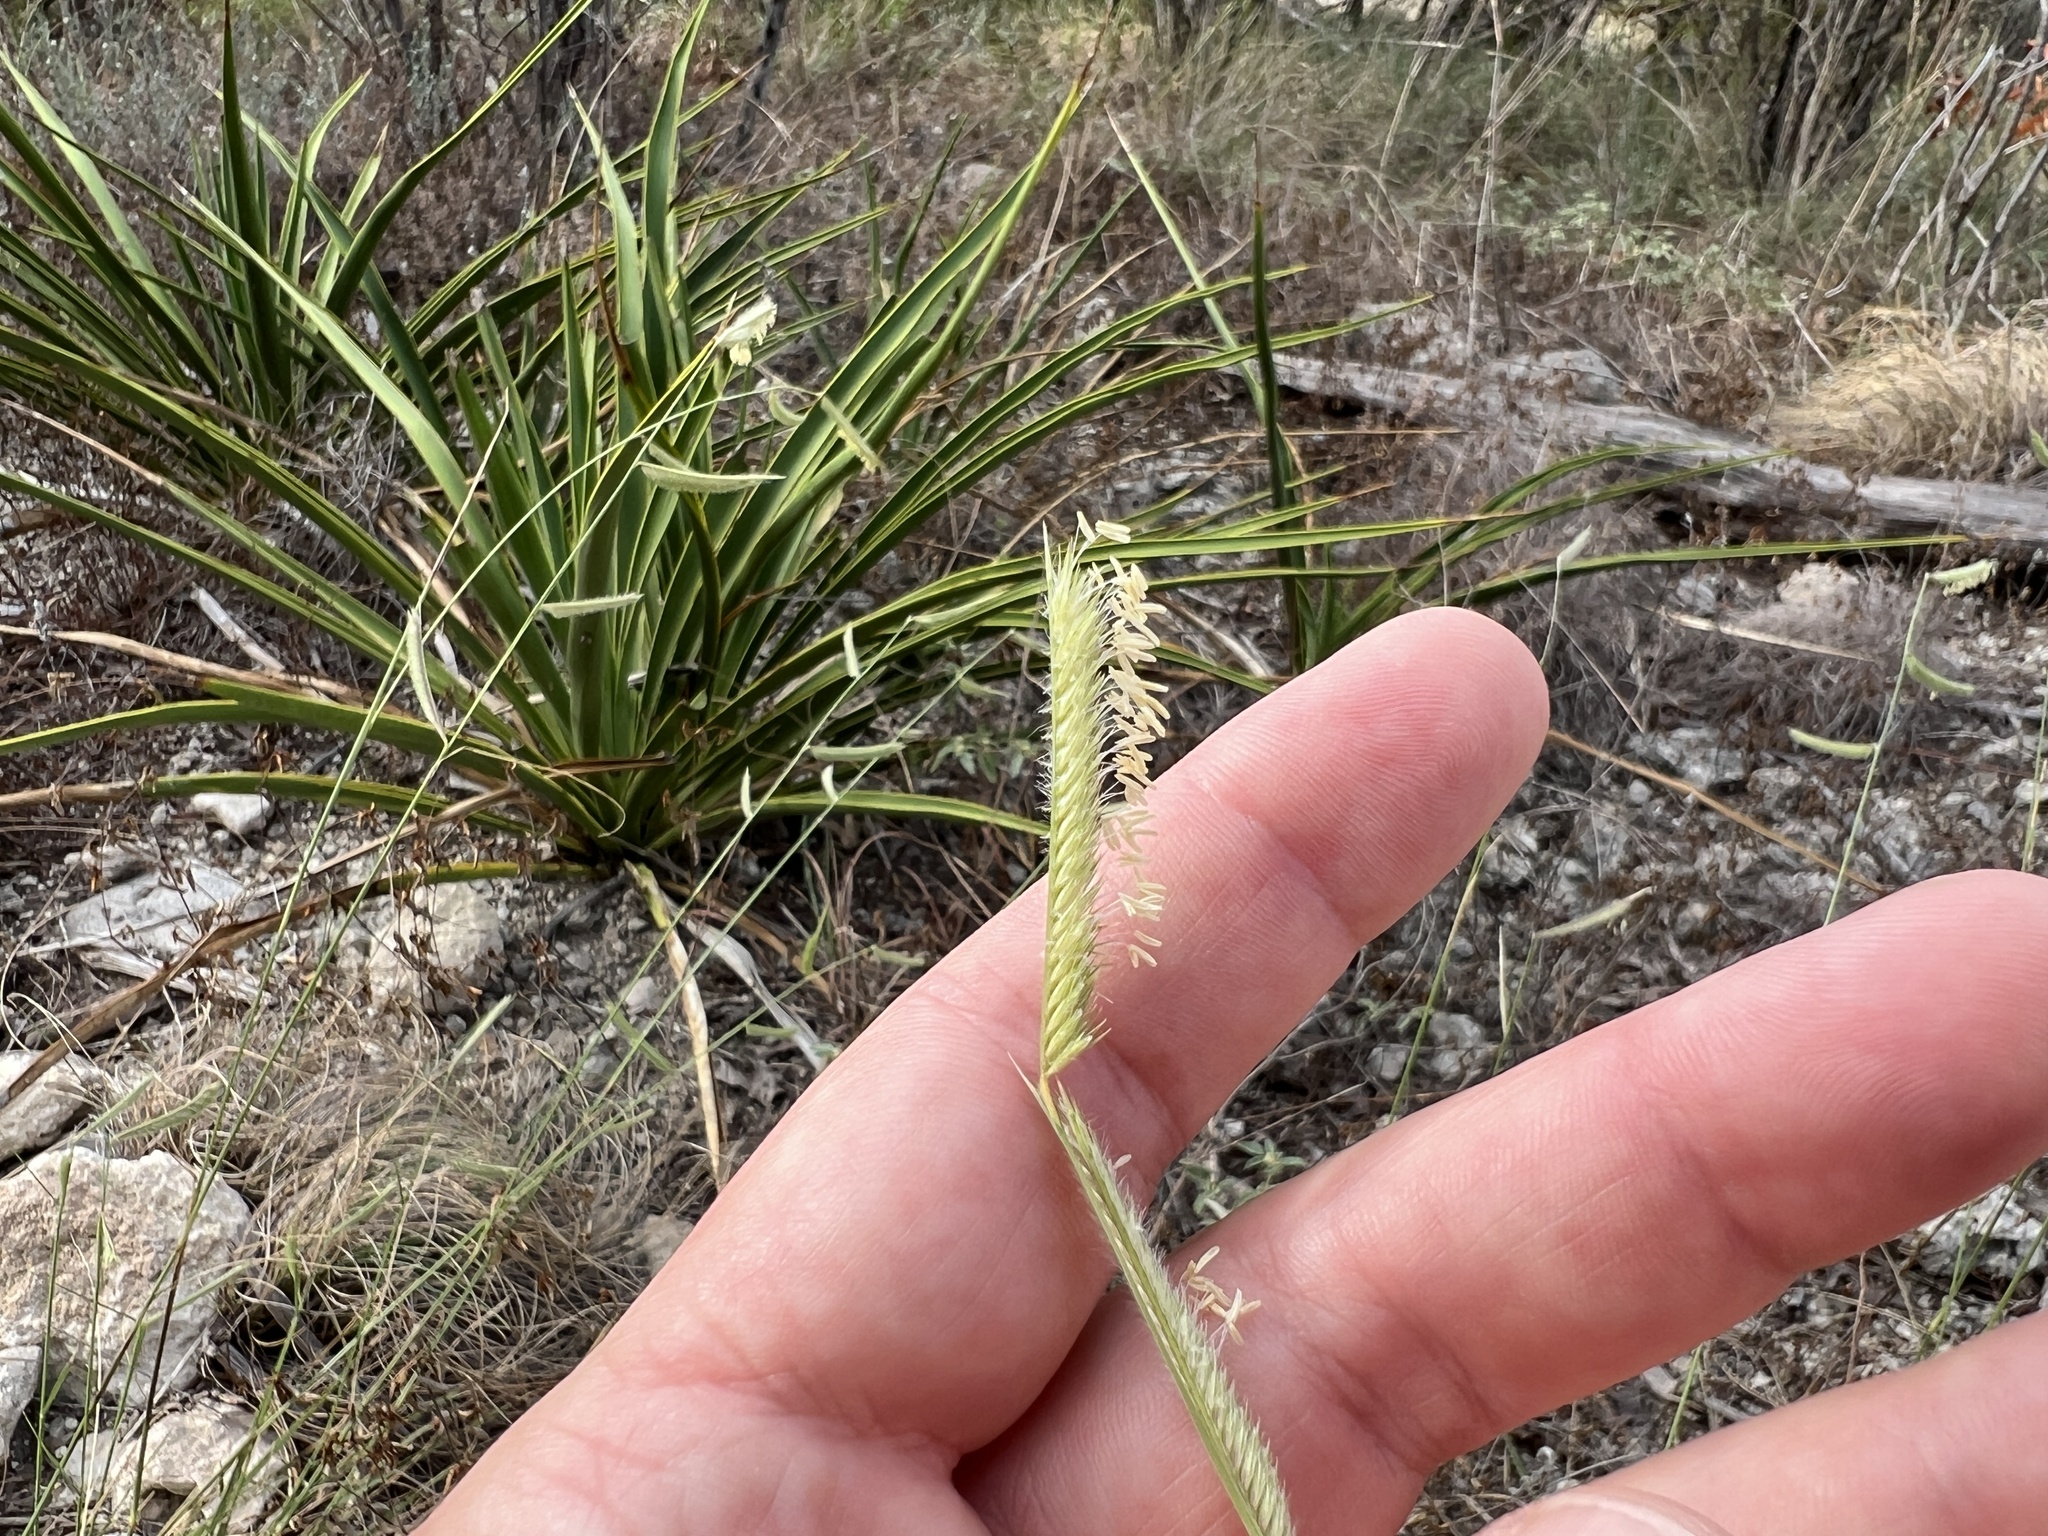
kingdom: Plantae
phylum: Tracheophyta
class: Liliopsida
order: Poales
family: Poaceae
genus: Bouteloua
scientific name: Bouteloua pectinata
